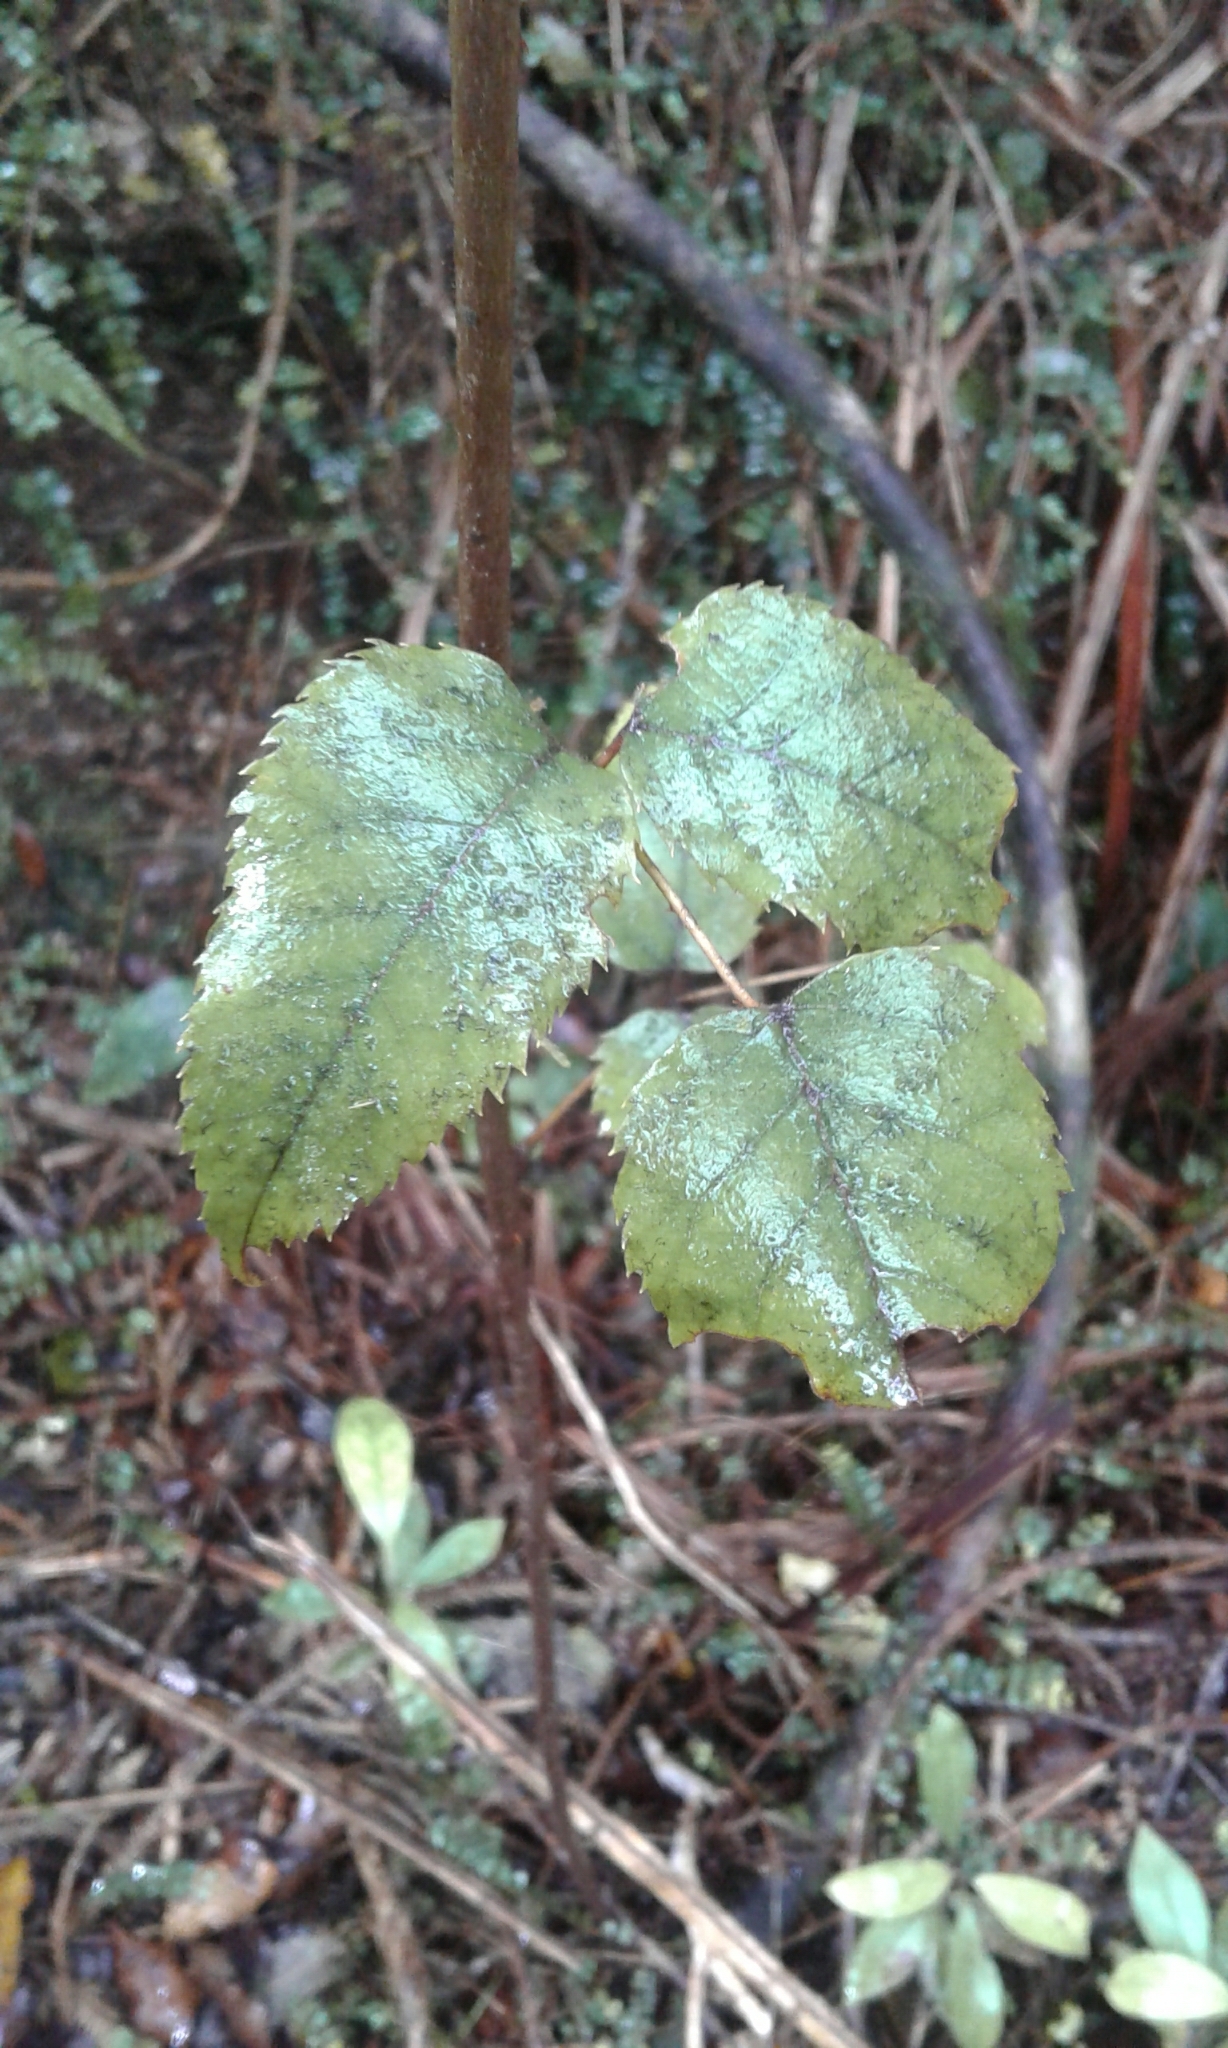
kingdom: Plantae
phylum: Tracheophyta
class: Magnoliopsida
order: Rosales
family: Rosaceae
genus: Rubus
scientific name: Rubus cissoides
